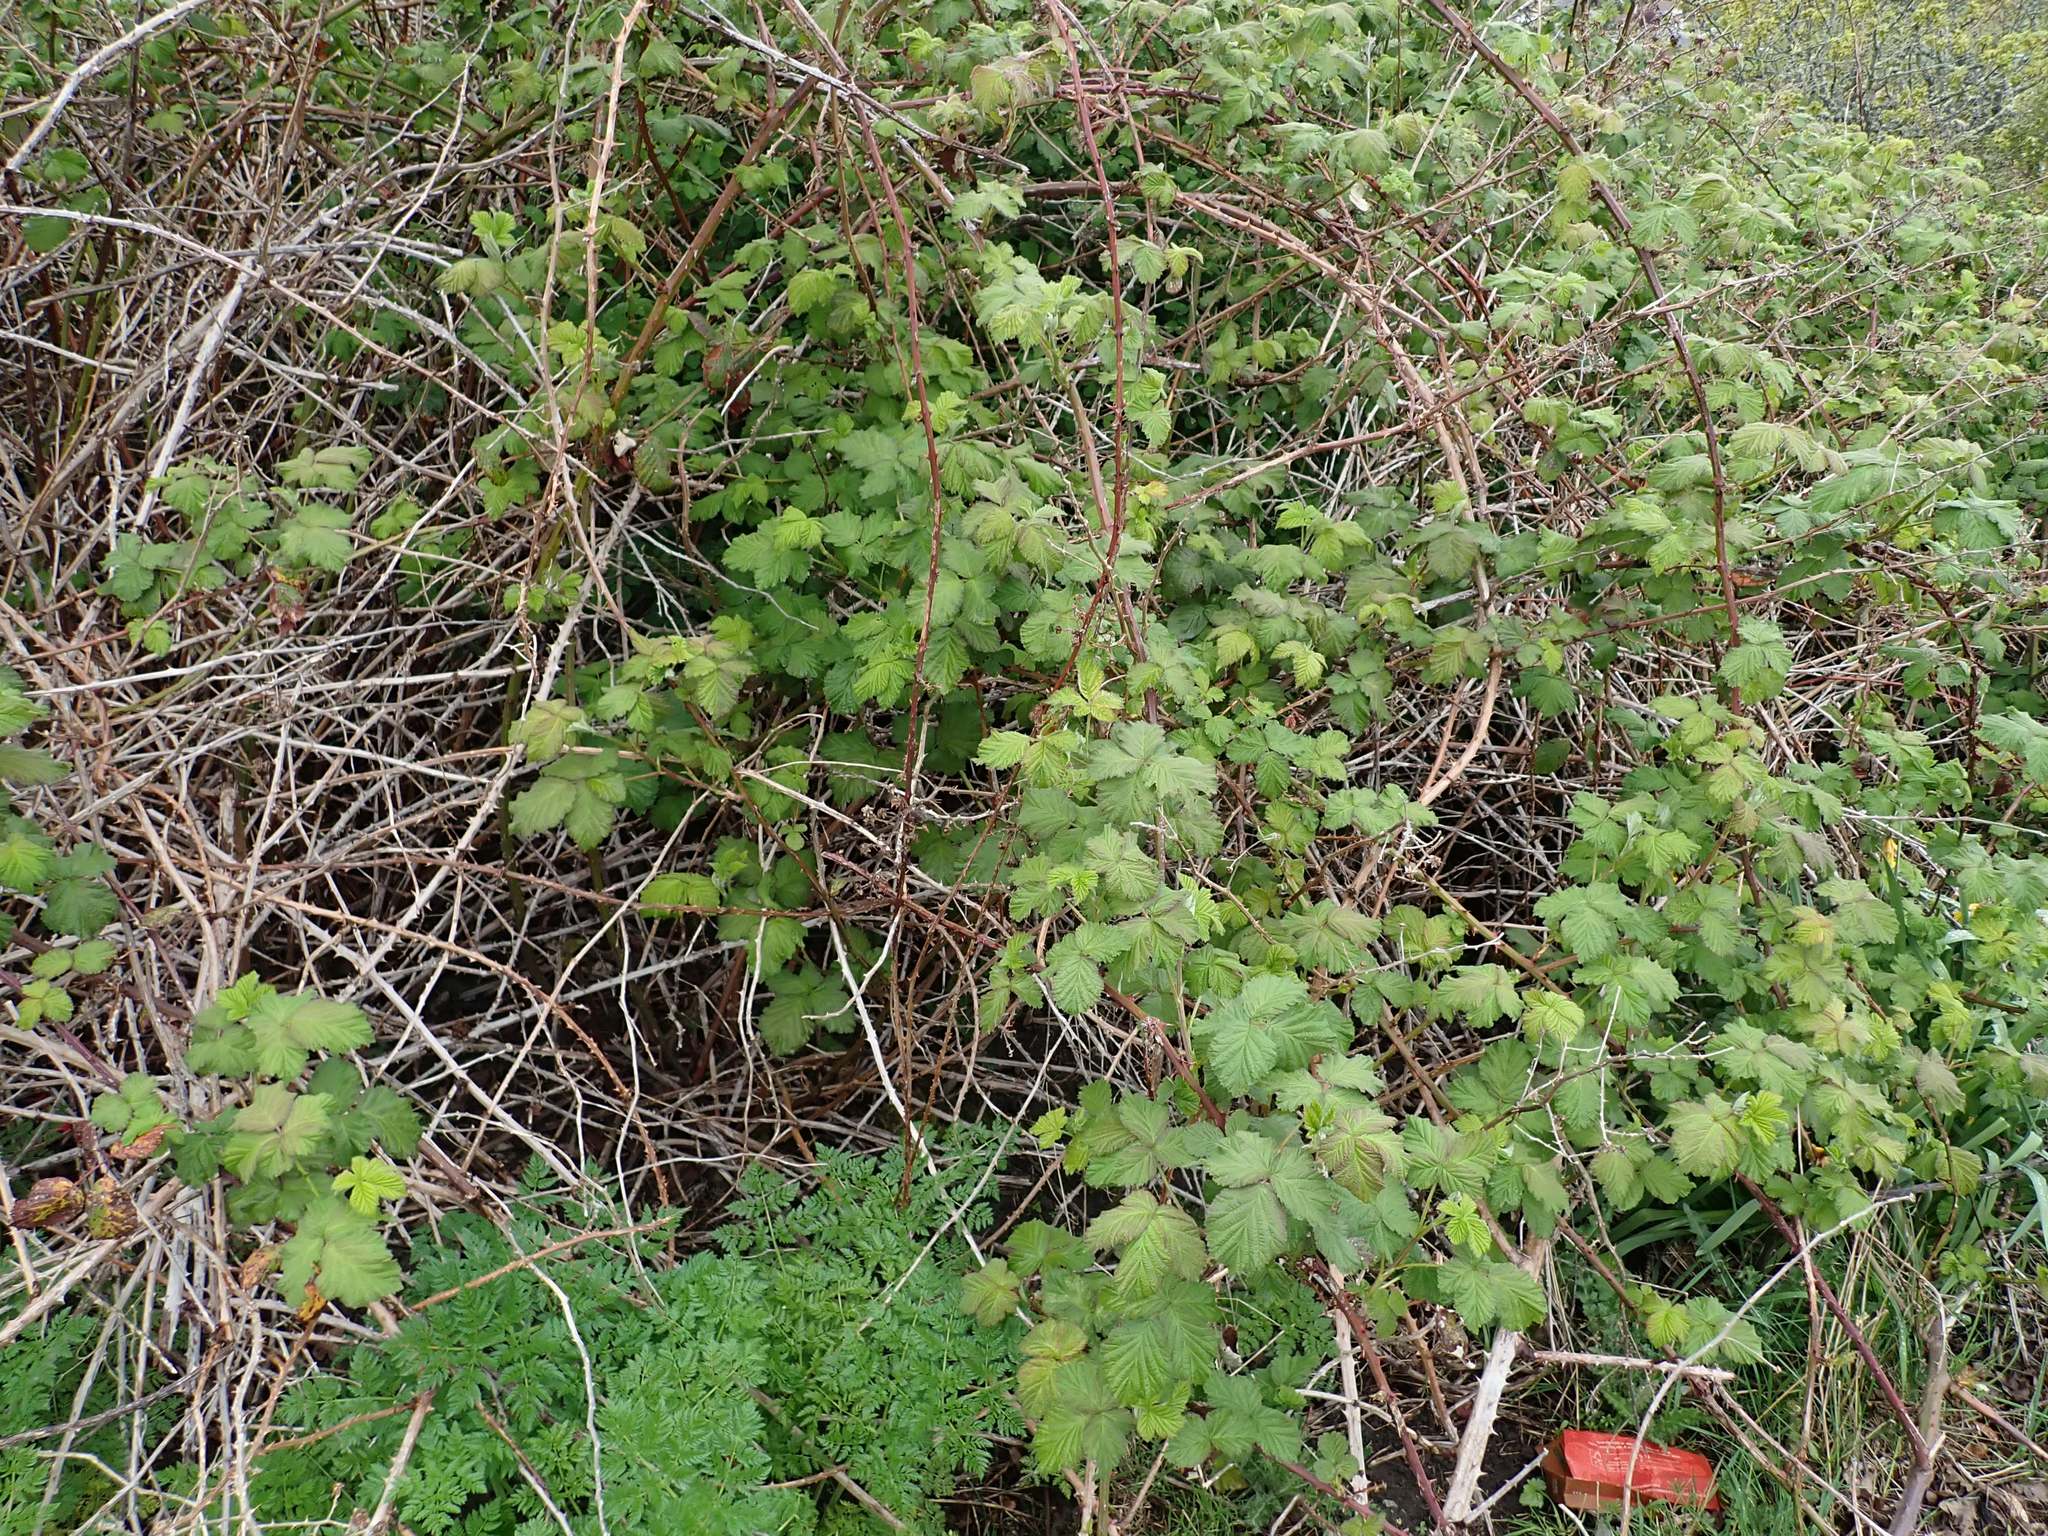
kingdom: Plantae
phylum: Tracheophyta
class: Magnoliopsida
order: Rosales
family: Rosaceae
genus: Rubus
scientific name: Rubus armeniacus
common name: Himalayan blackberry
